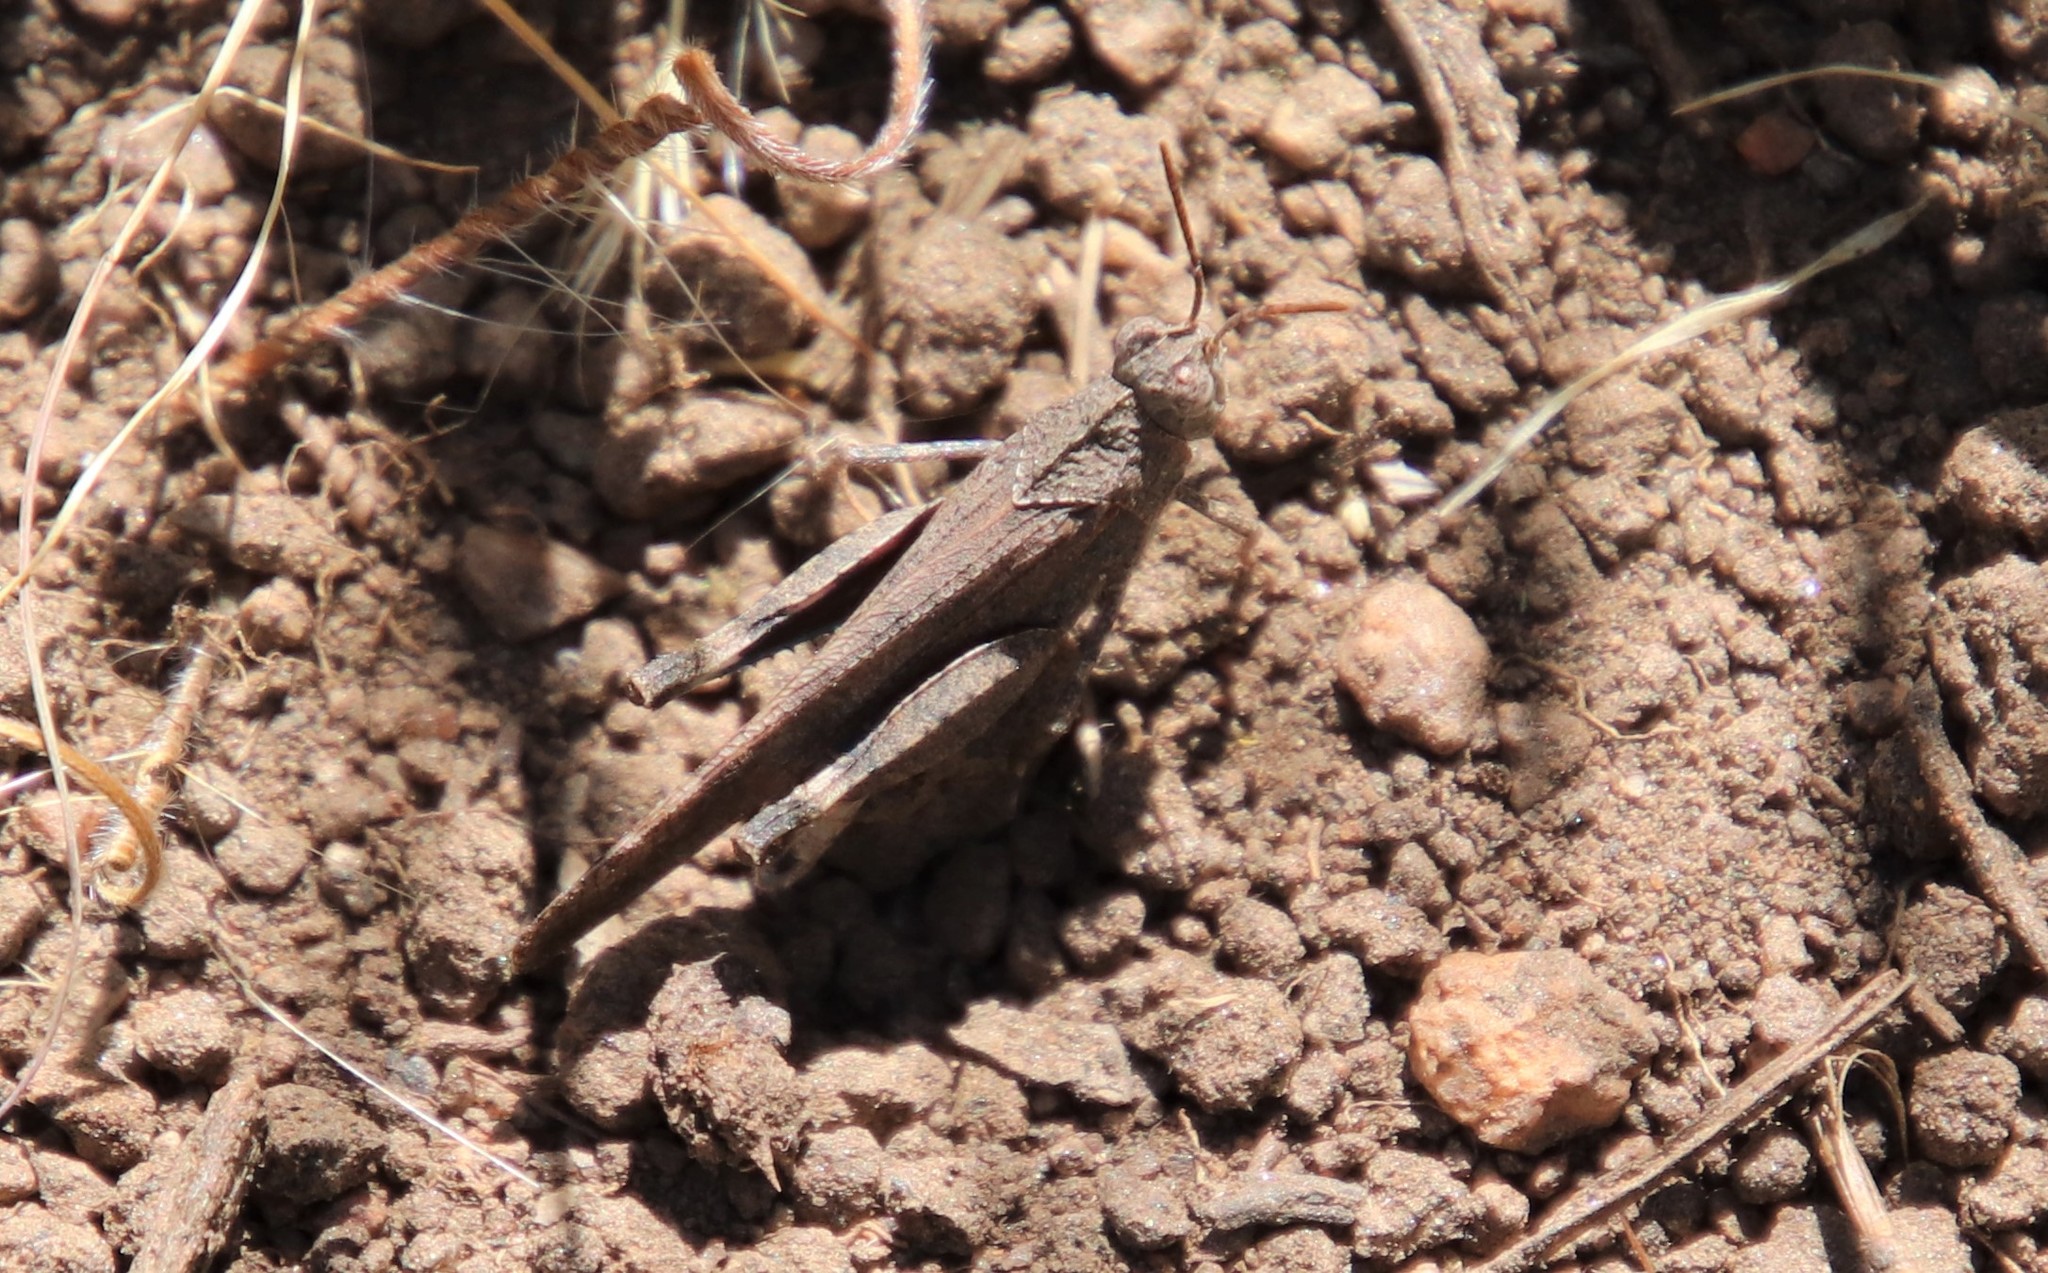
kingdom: Animalia
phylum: Arthropoda
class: Insecta
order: Orthoptera
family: Acrididae
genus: Lactista
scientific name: Lactista gibbosus
